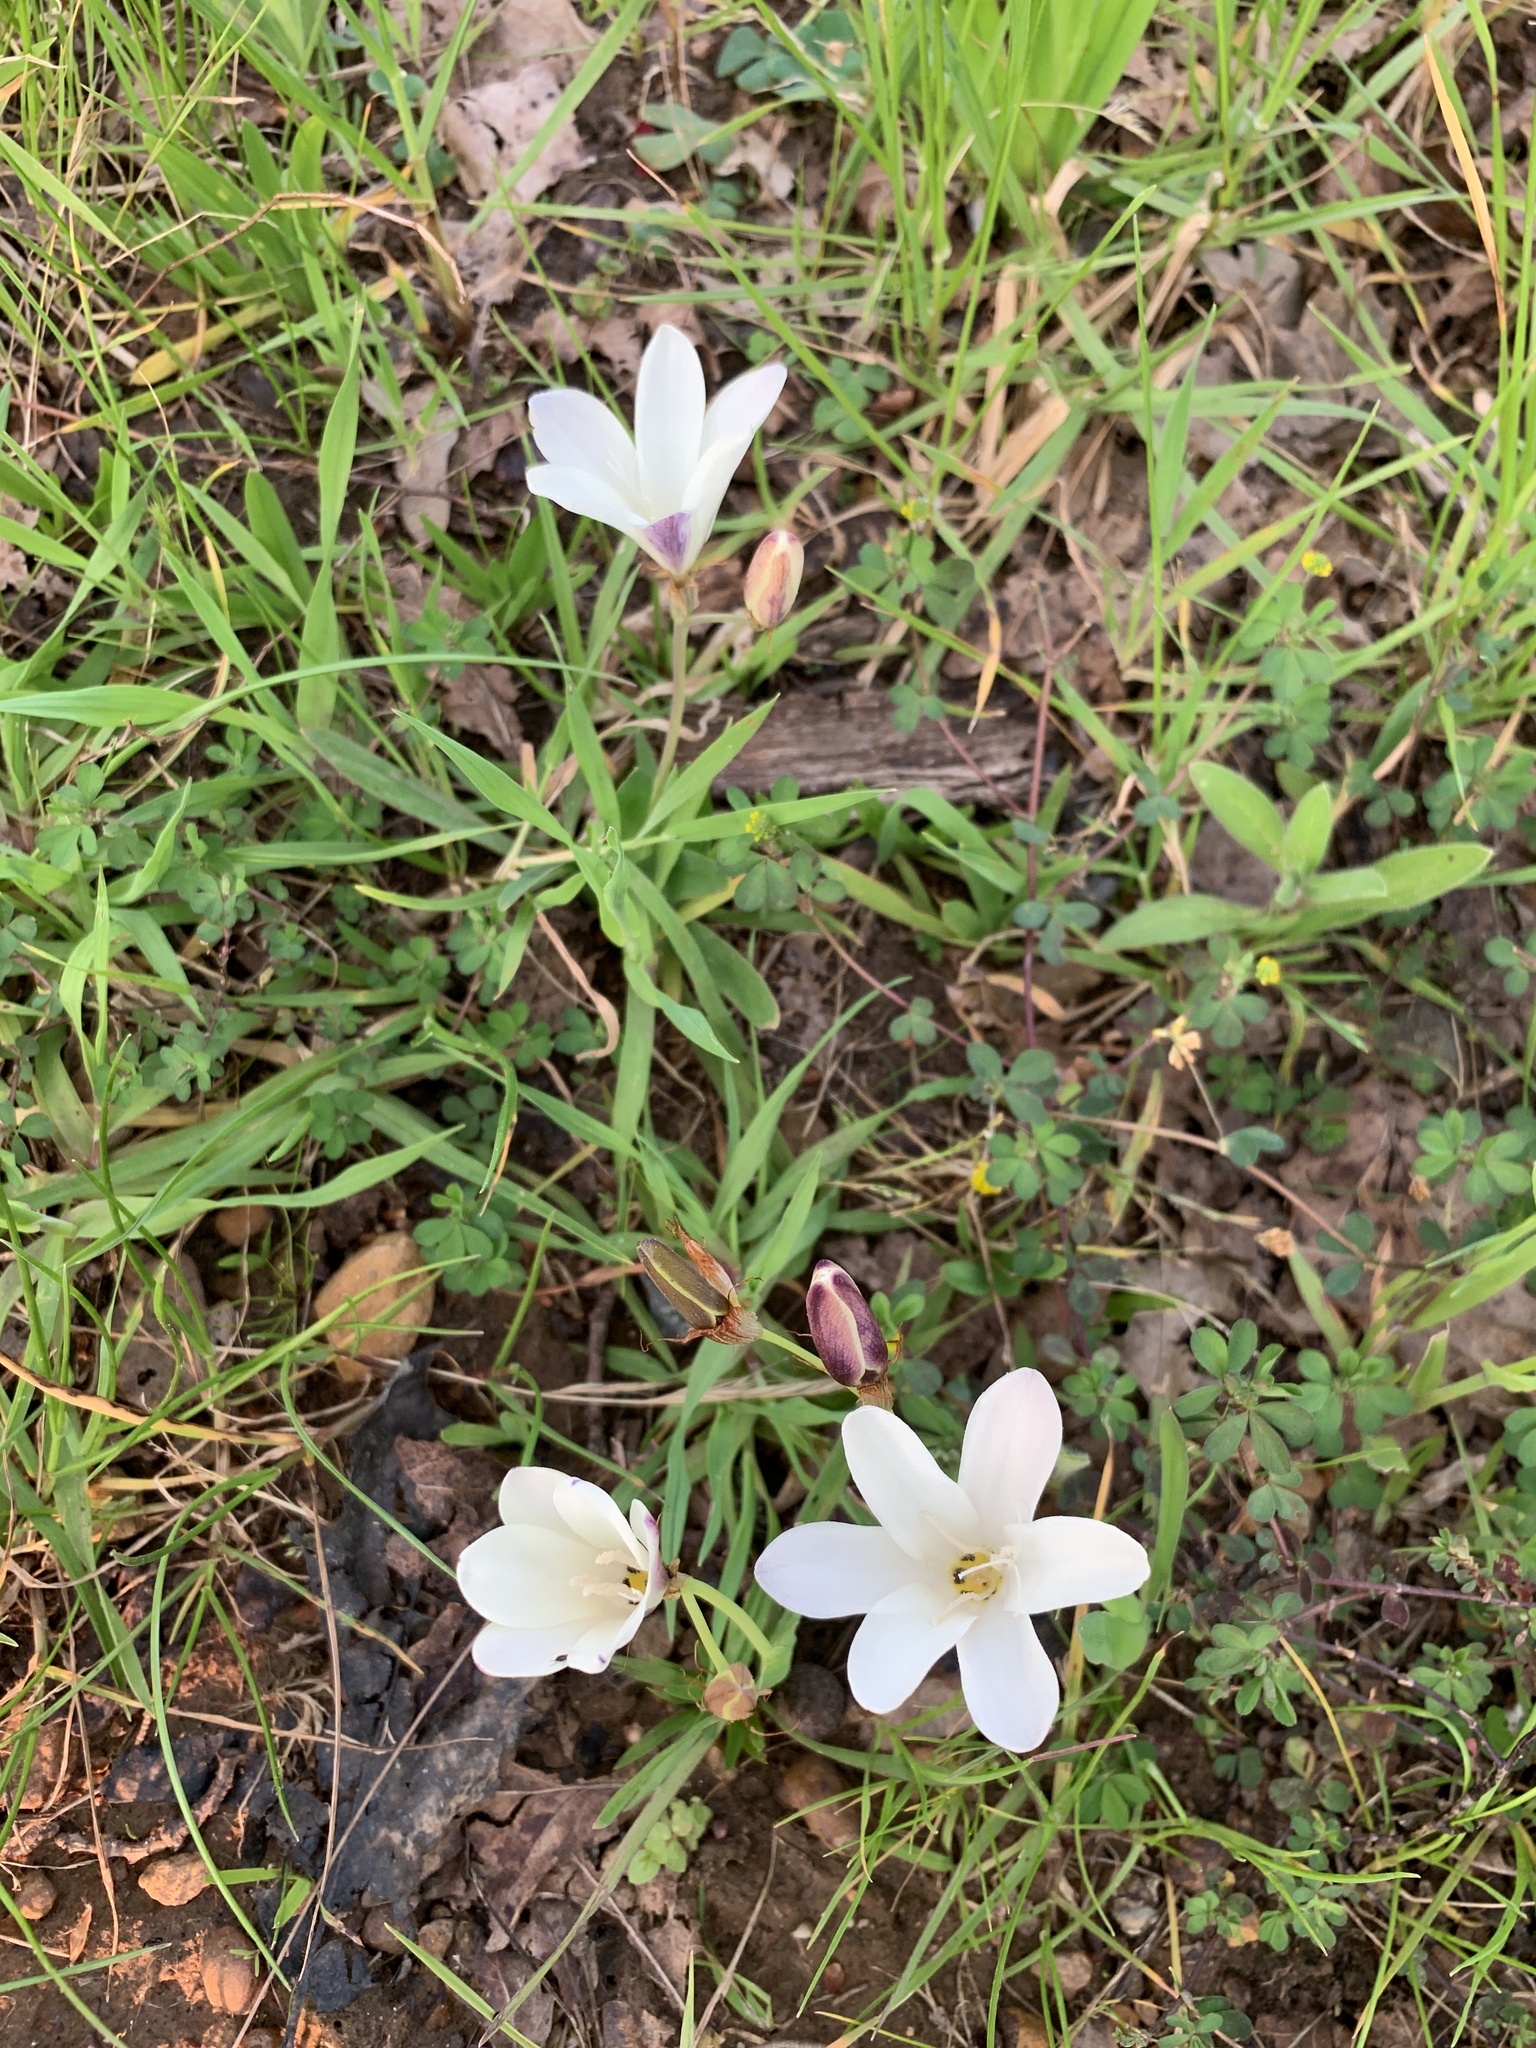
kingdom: Plantae
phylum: Tracheophyta
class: Liliopsida
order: Asparagales
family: Iridaceae
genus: Sparaxis
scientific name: Sparaxis bulbifera
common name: Harlequin-flower
